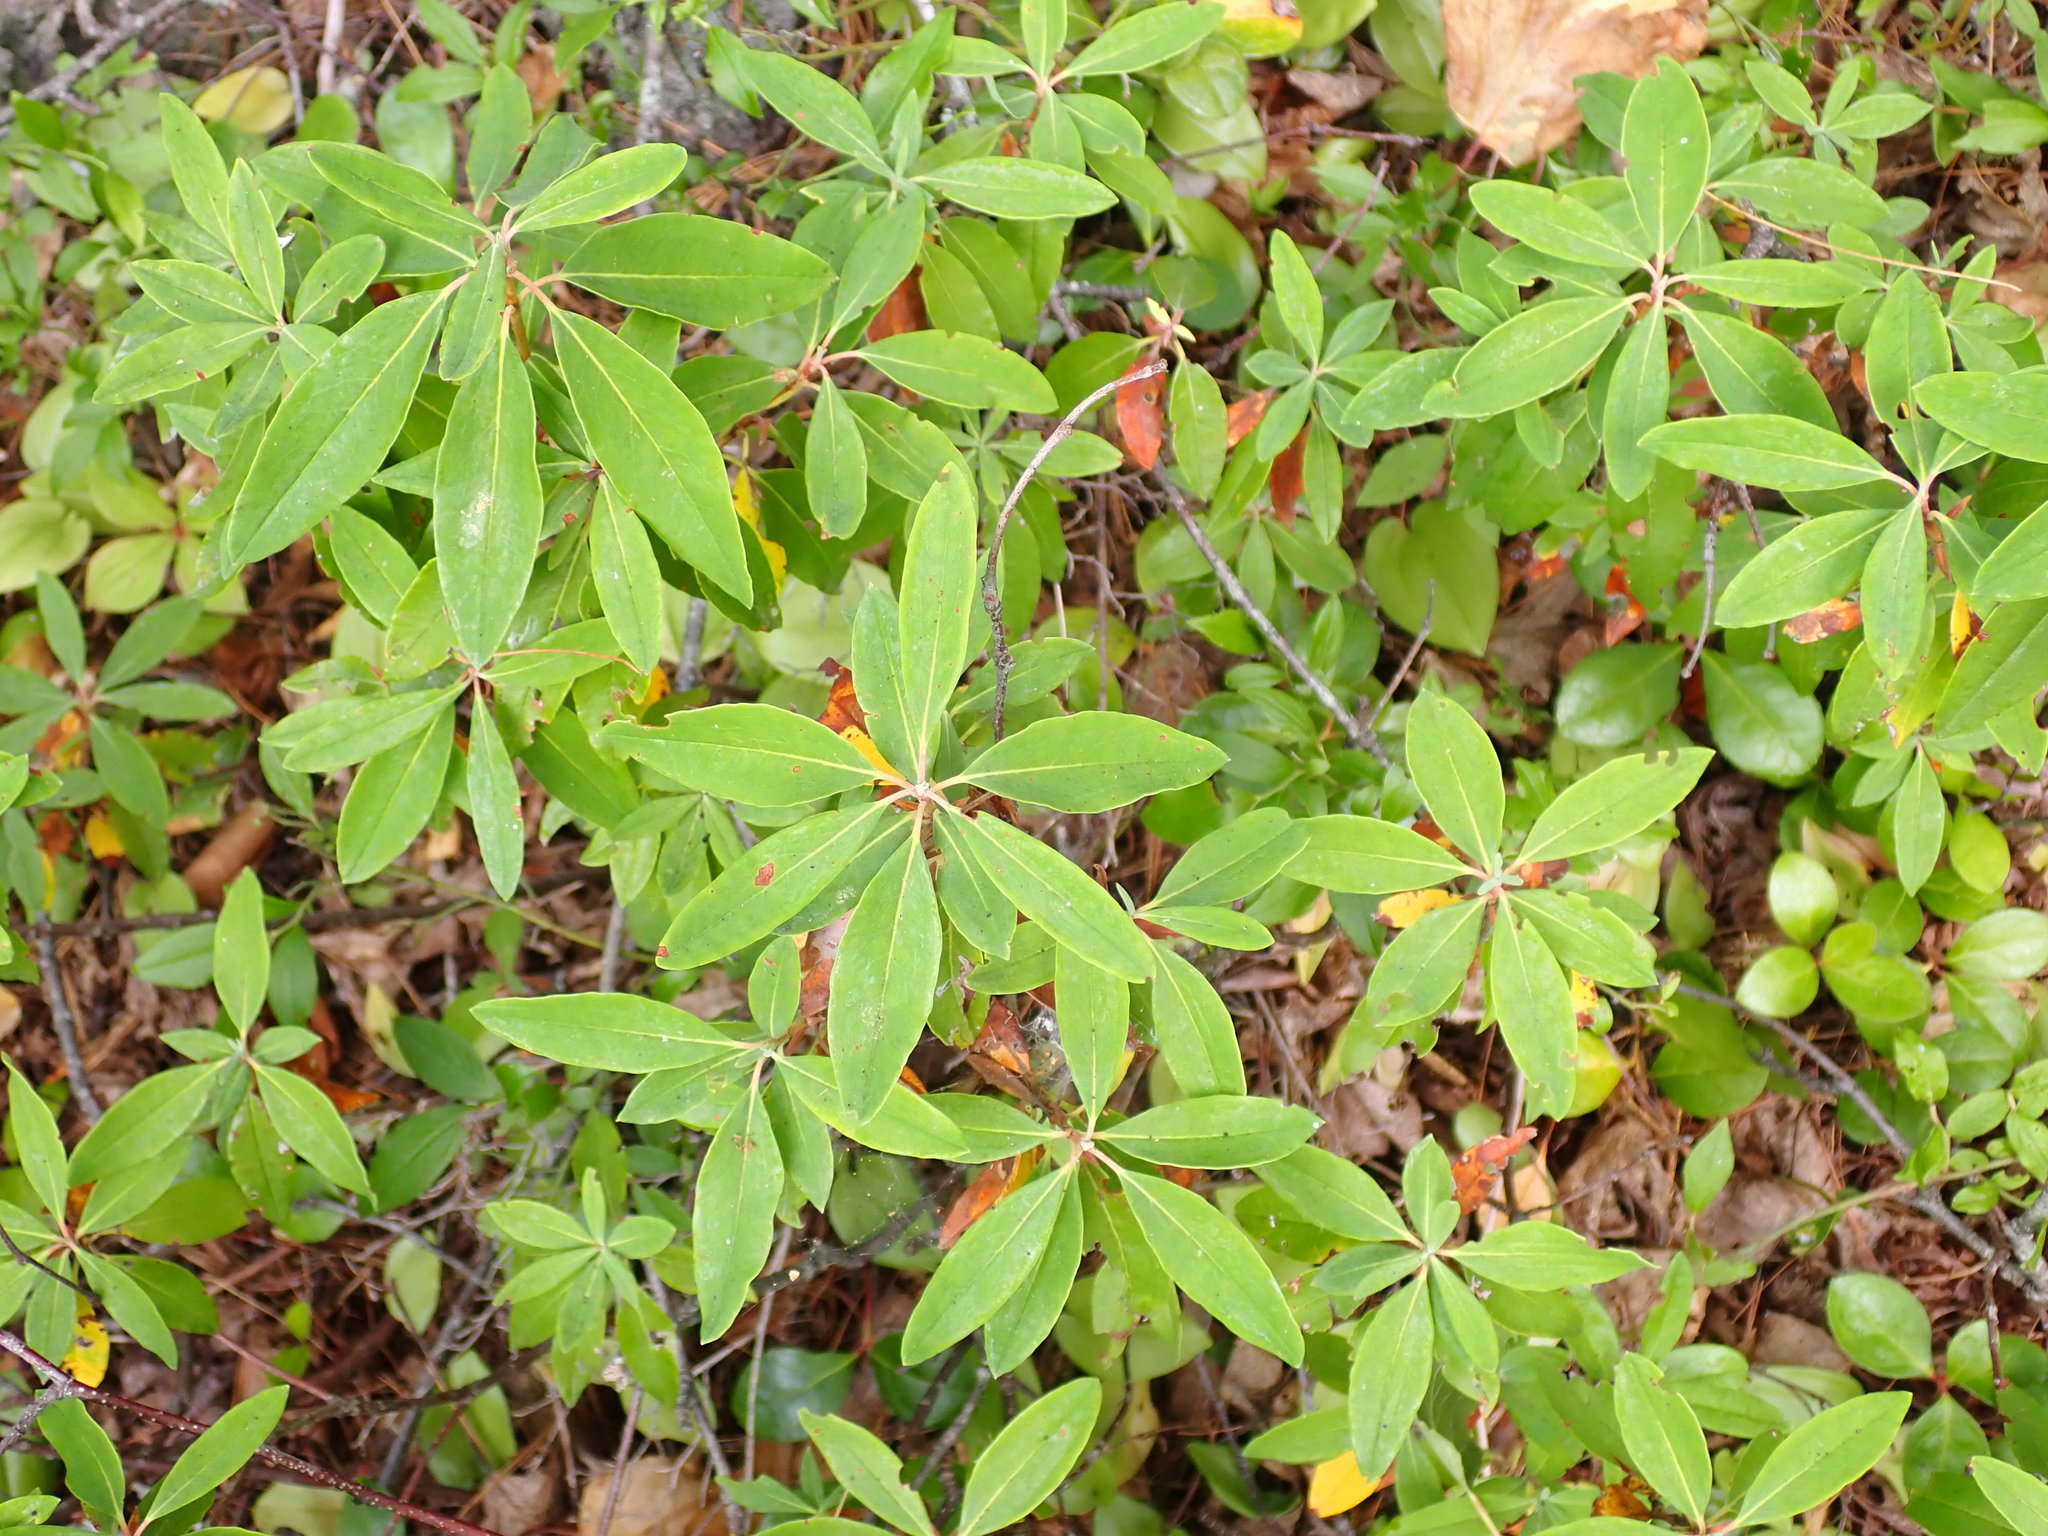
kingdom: Plantae
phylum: Tracheophyta
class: Magnoliopsida
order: Ericales
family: Ericaceae
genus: Kalmia
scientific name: Kalmia angustifolia
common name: Sheep-laurel
